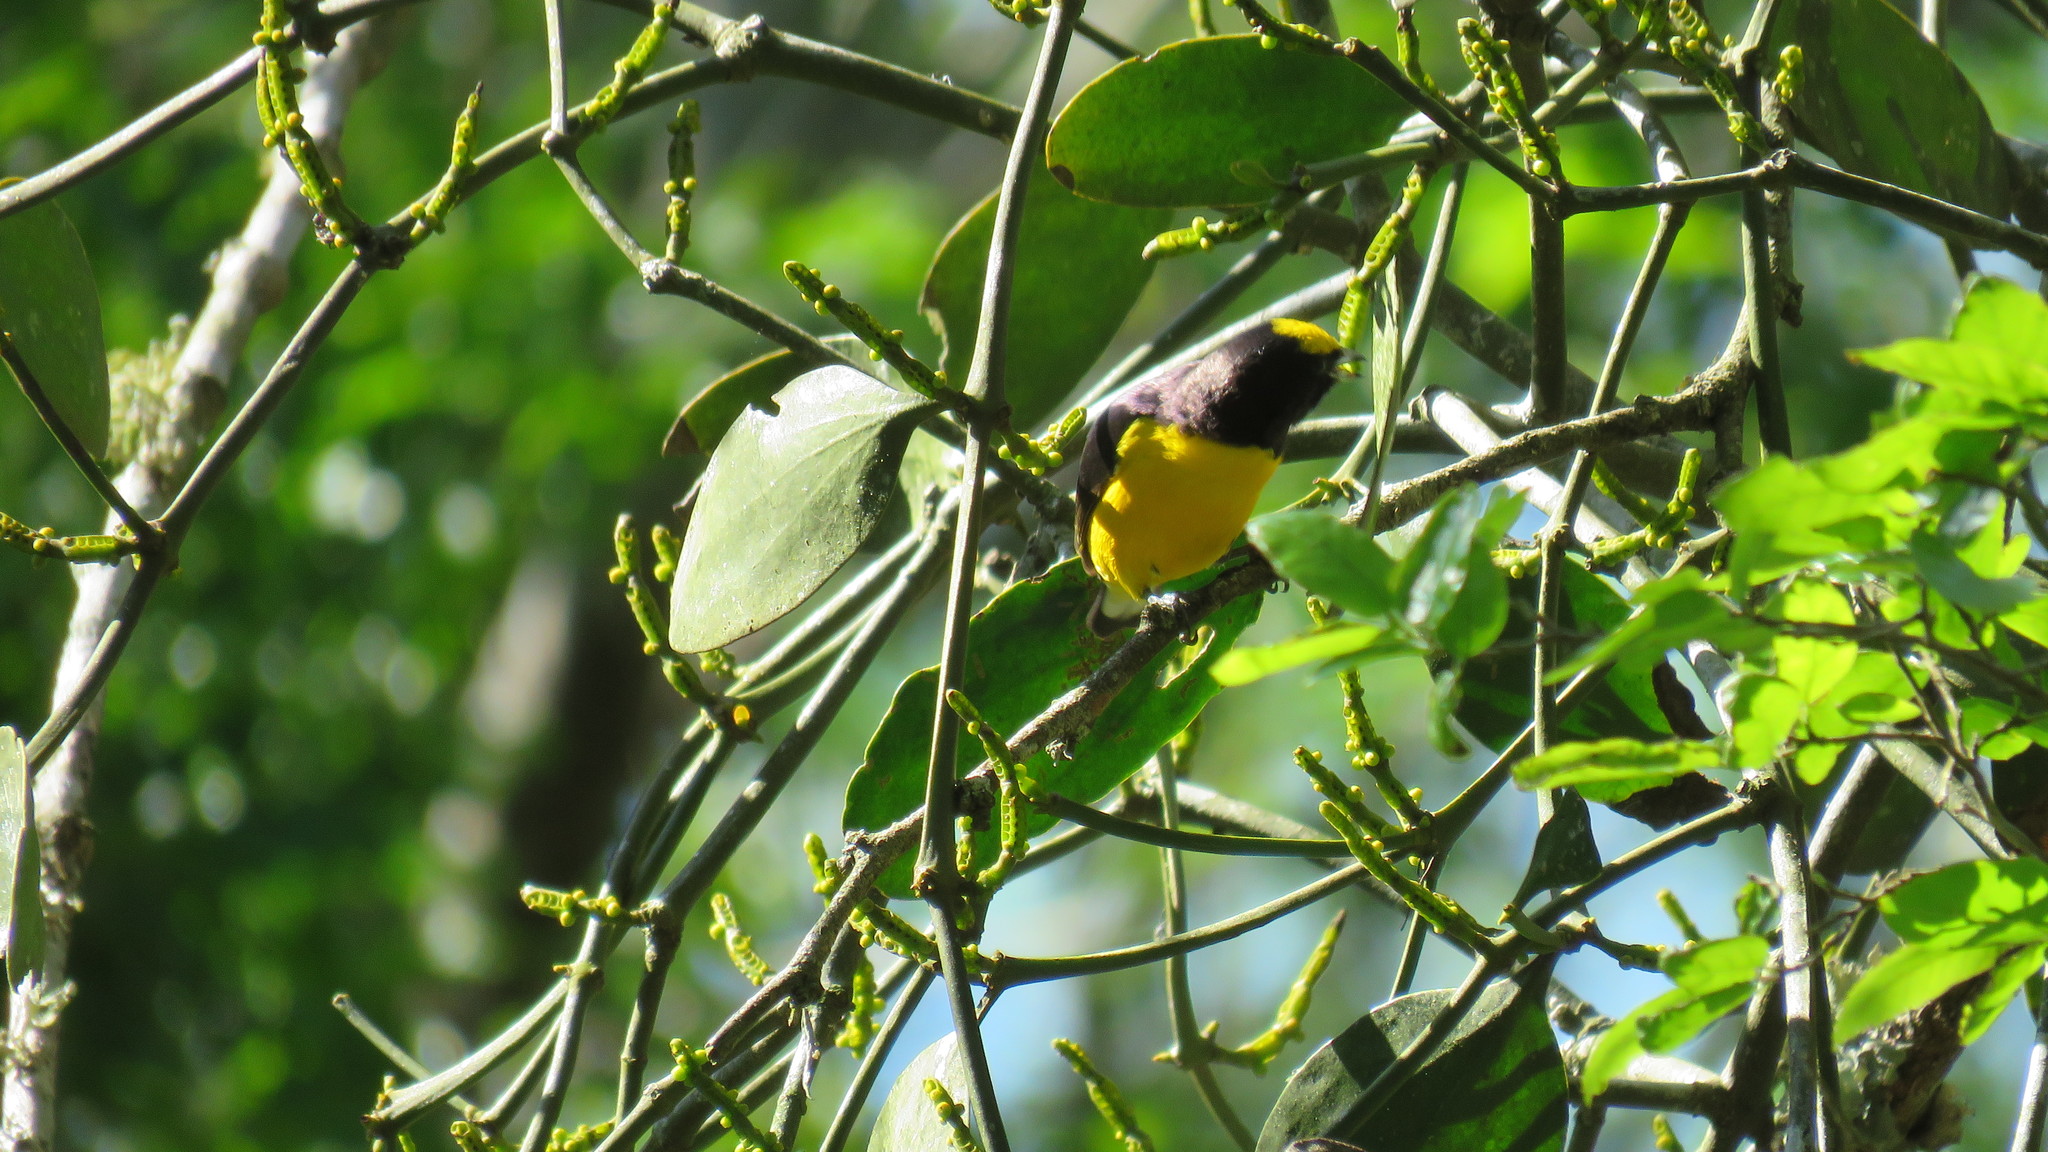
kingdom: Animalia
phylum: Chordata
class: Aves
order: Passeriformes
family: Fringillidae
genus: Euphonia
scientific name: Euphonia chlorotica
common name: Purple-throated euphonia
